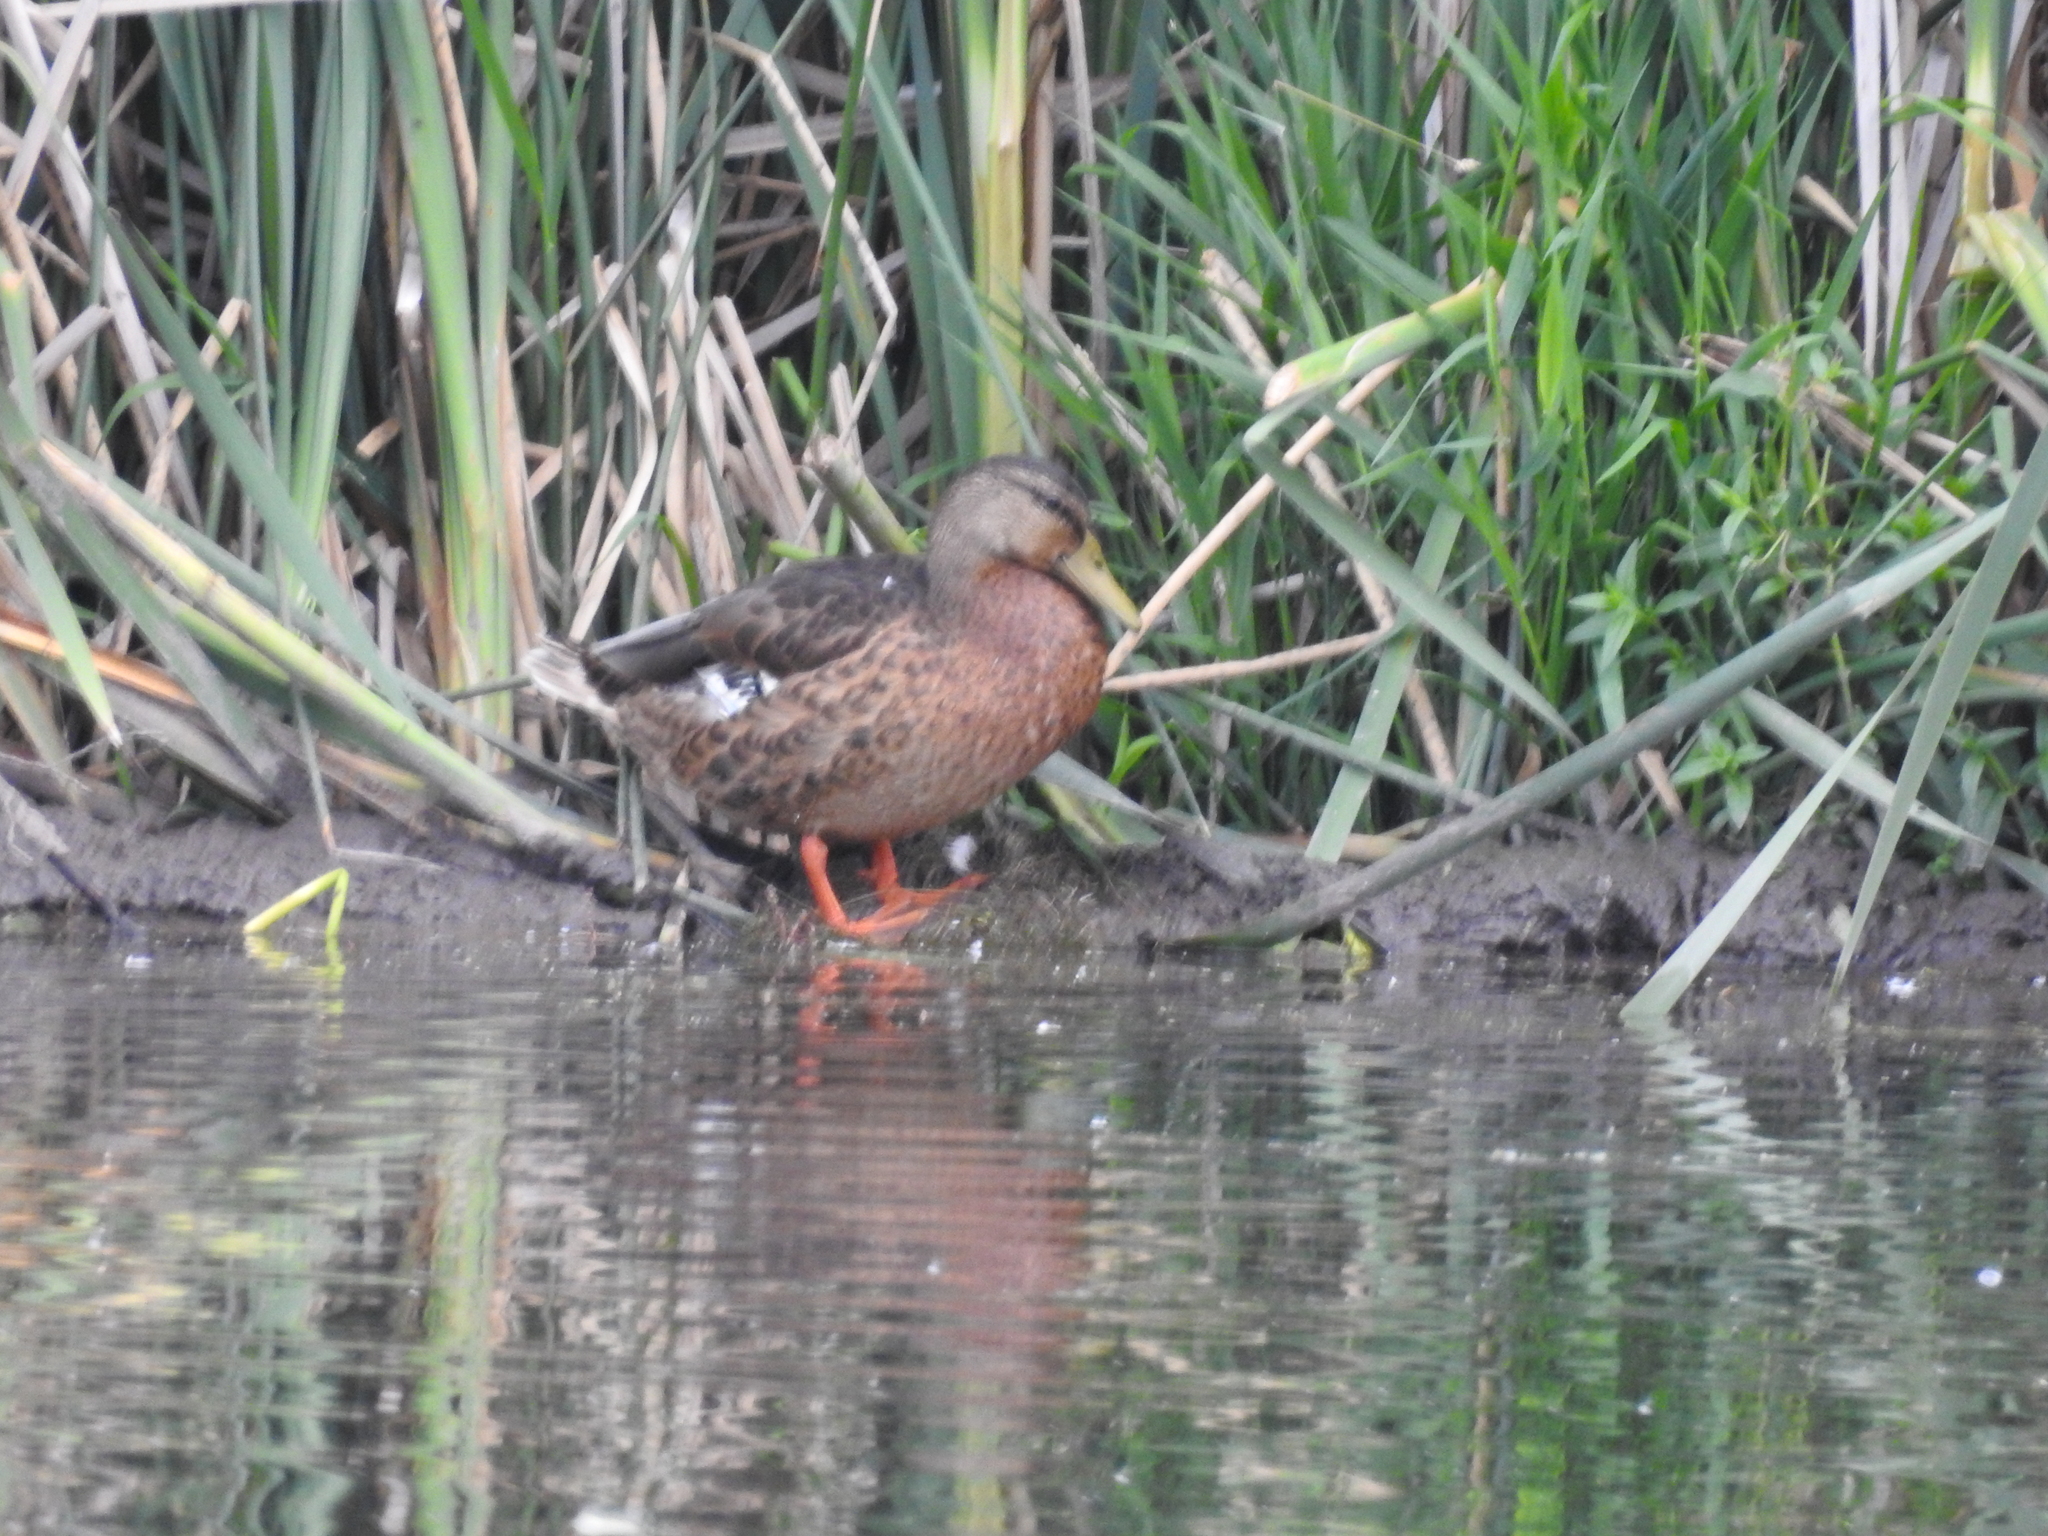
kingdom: Animalia
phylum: Chordata
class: Aves
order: Anseriformes
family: Anatidae
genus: Anas
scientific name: Anas platyrhynchos
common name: Mallard
